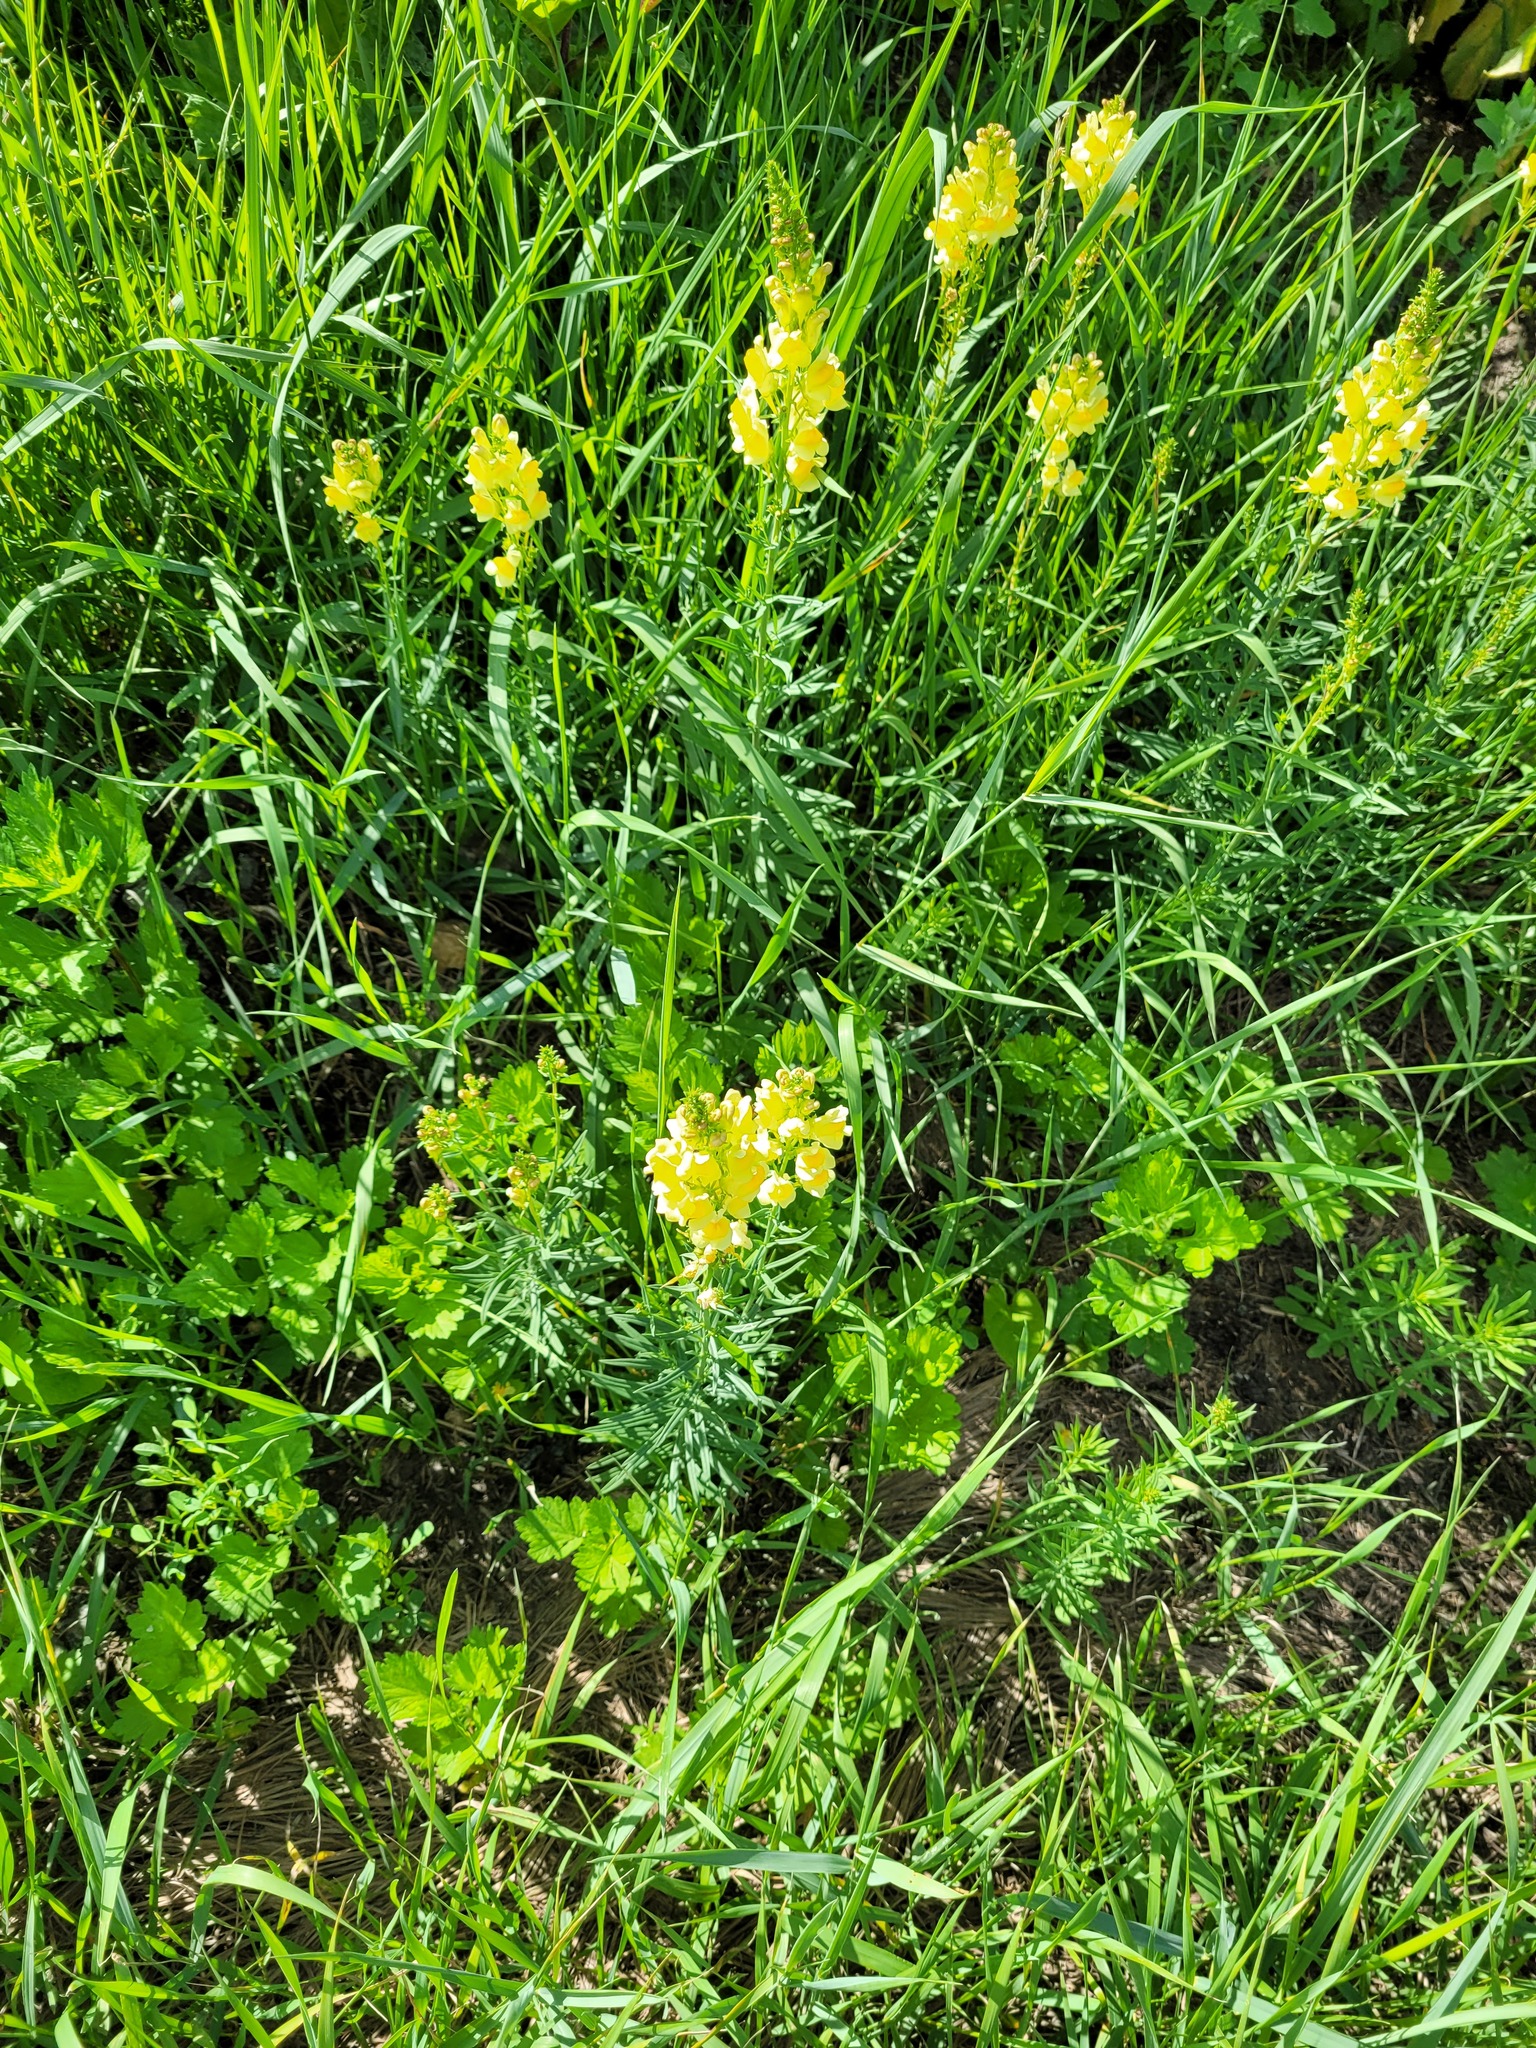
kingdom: Plantae
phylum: Tracheophyta
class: Magnoliopsida
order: Lamiales
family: Plantaginaceae
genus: Linaria
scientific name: Linaria vulgaris
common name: Butter and eggs
